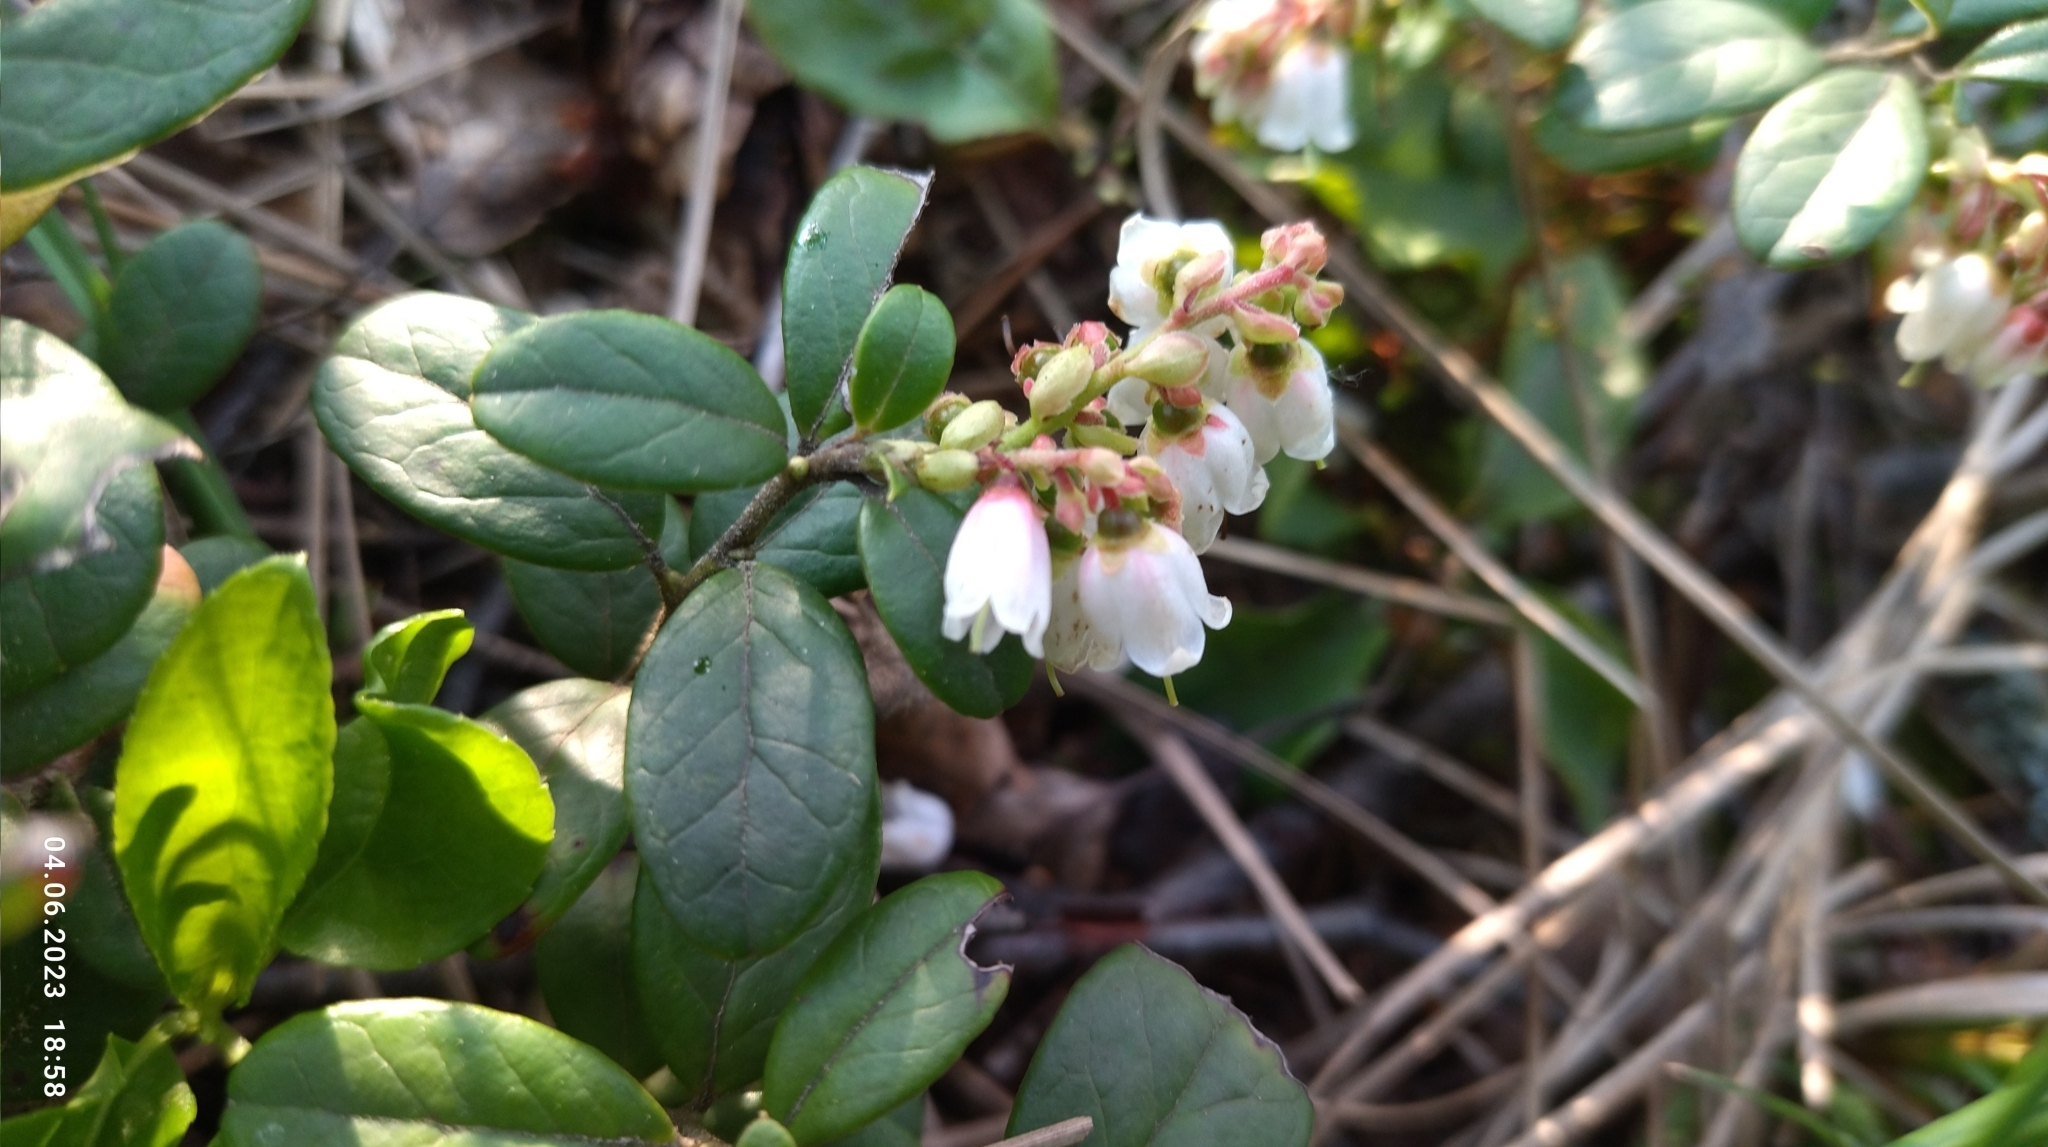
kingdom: Plantae
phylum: Tracheophyta
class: Magnoliopsida
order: Ericales
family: Ericaceae
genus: Vaccinium
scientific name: Vaccinium vitis-idaea
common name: Cowberry
